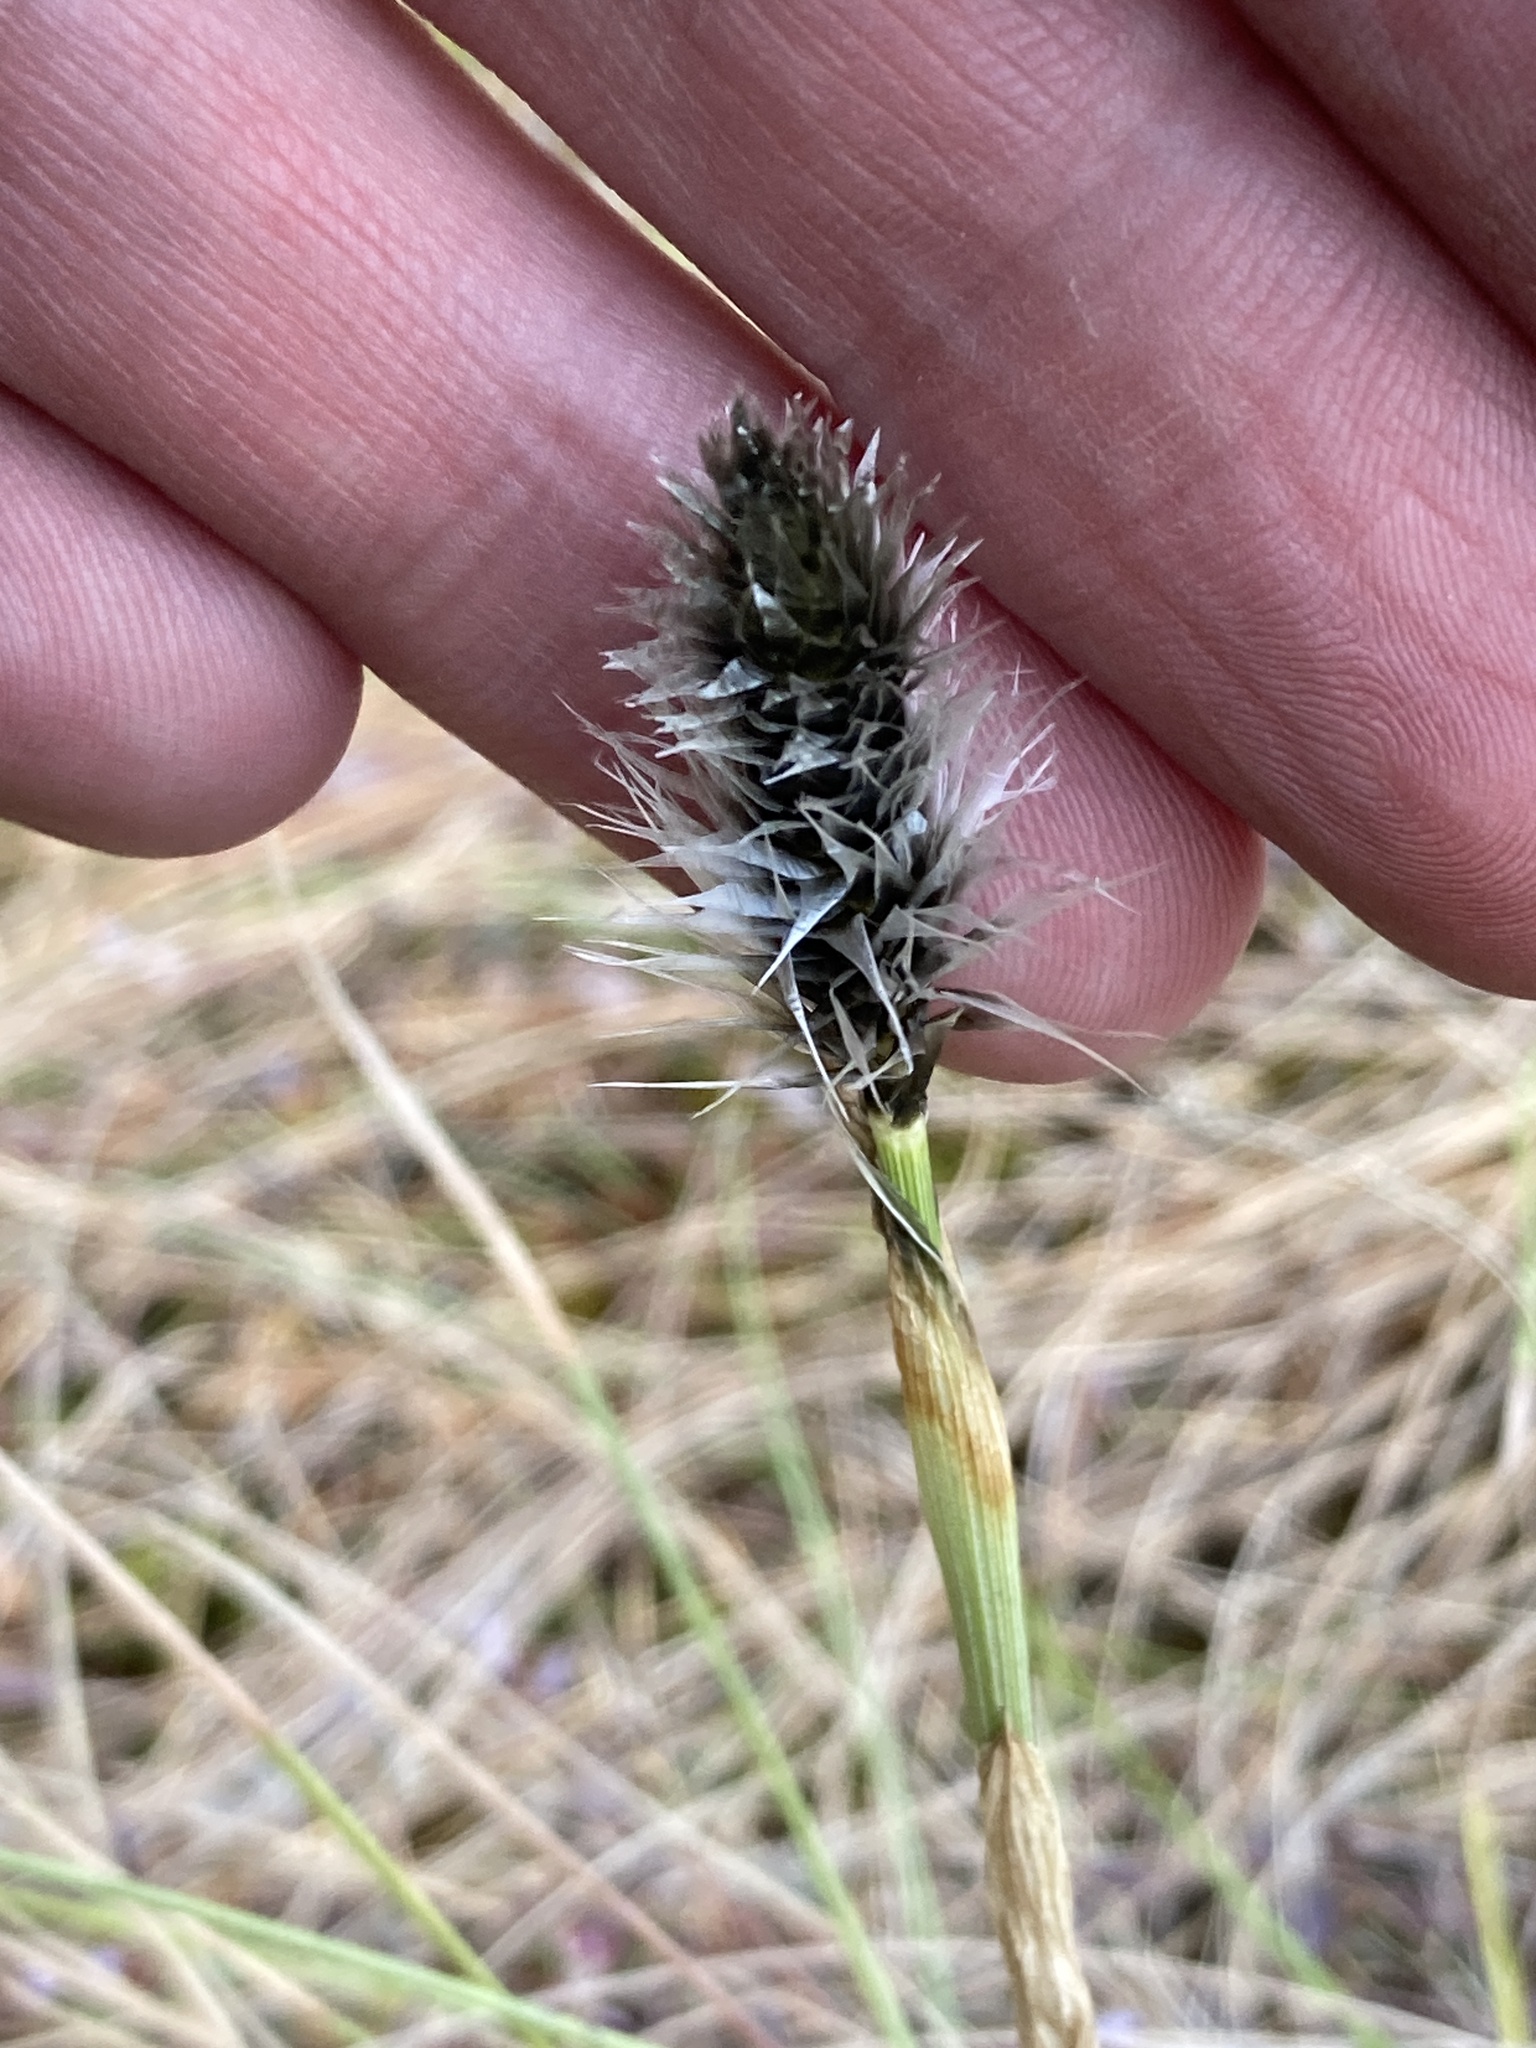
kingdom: Plantae
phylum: Tracheophyta
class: Liliopsida
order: Poales
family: Cyperaceae
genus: Eriophorum
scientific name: Eriophorum vaginatum
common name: Hare's-tail cottongrass
